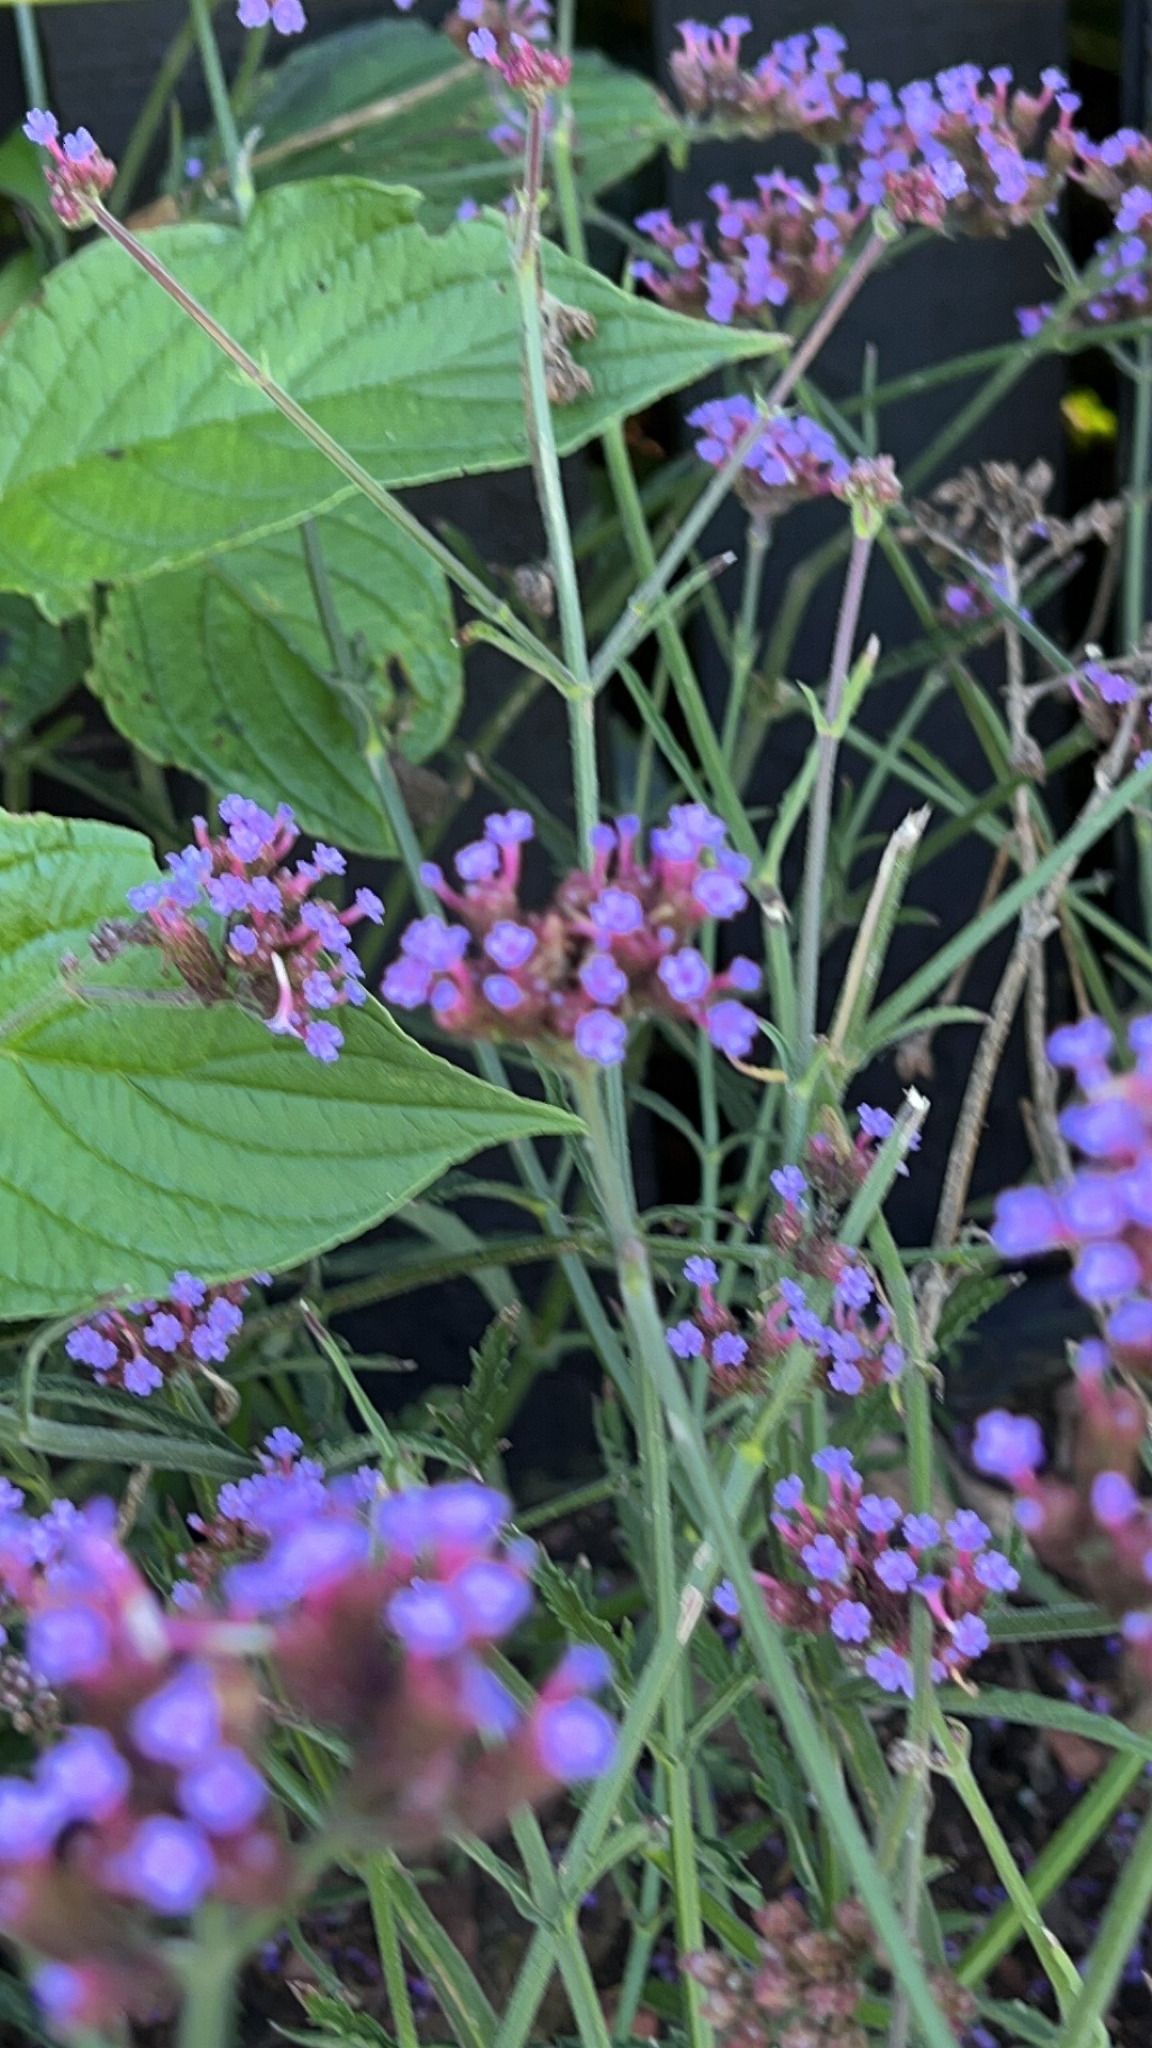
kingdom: Plantae
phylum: Tracheophyta
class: Magnoliopsida
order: Lamiales
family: Verbenaceae
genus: Verbena
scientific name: Verbena bonariensis
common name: Purpletop vervain
